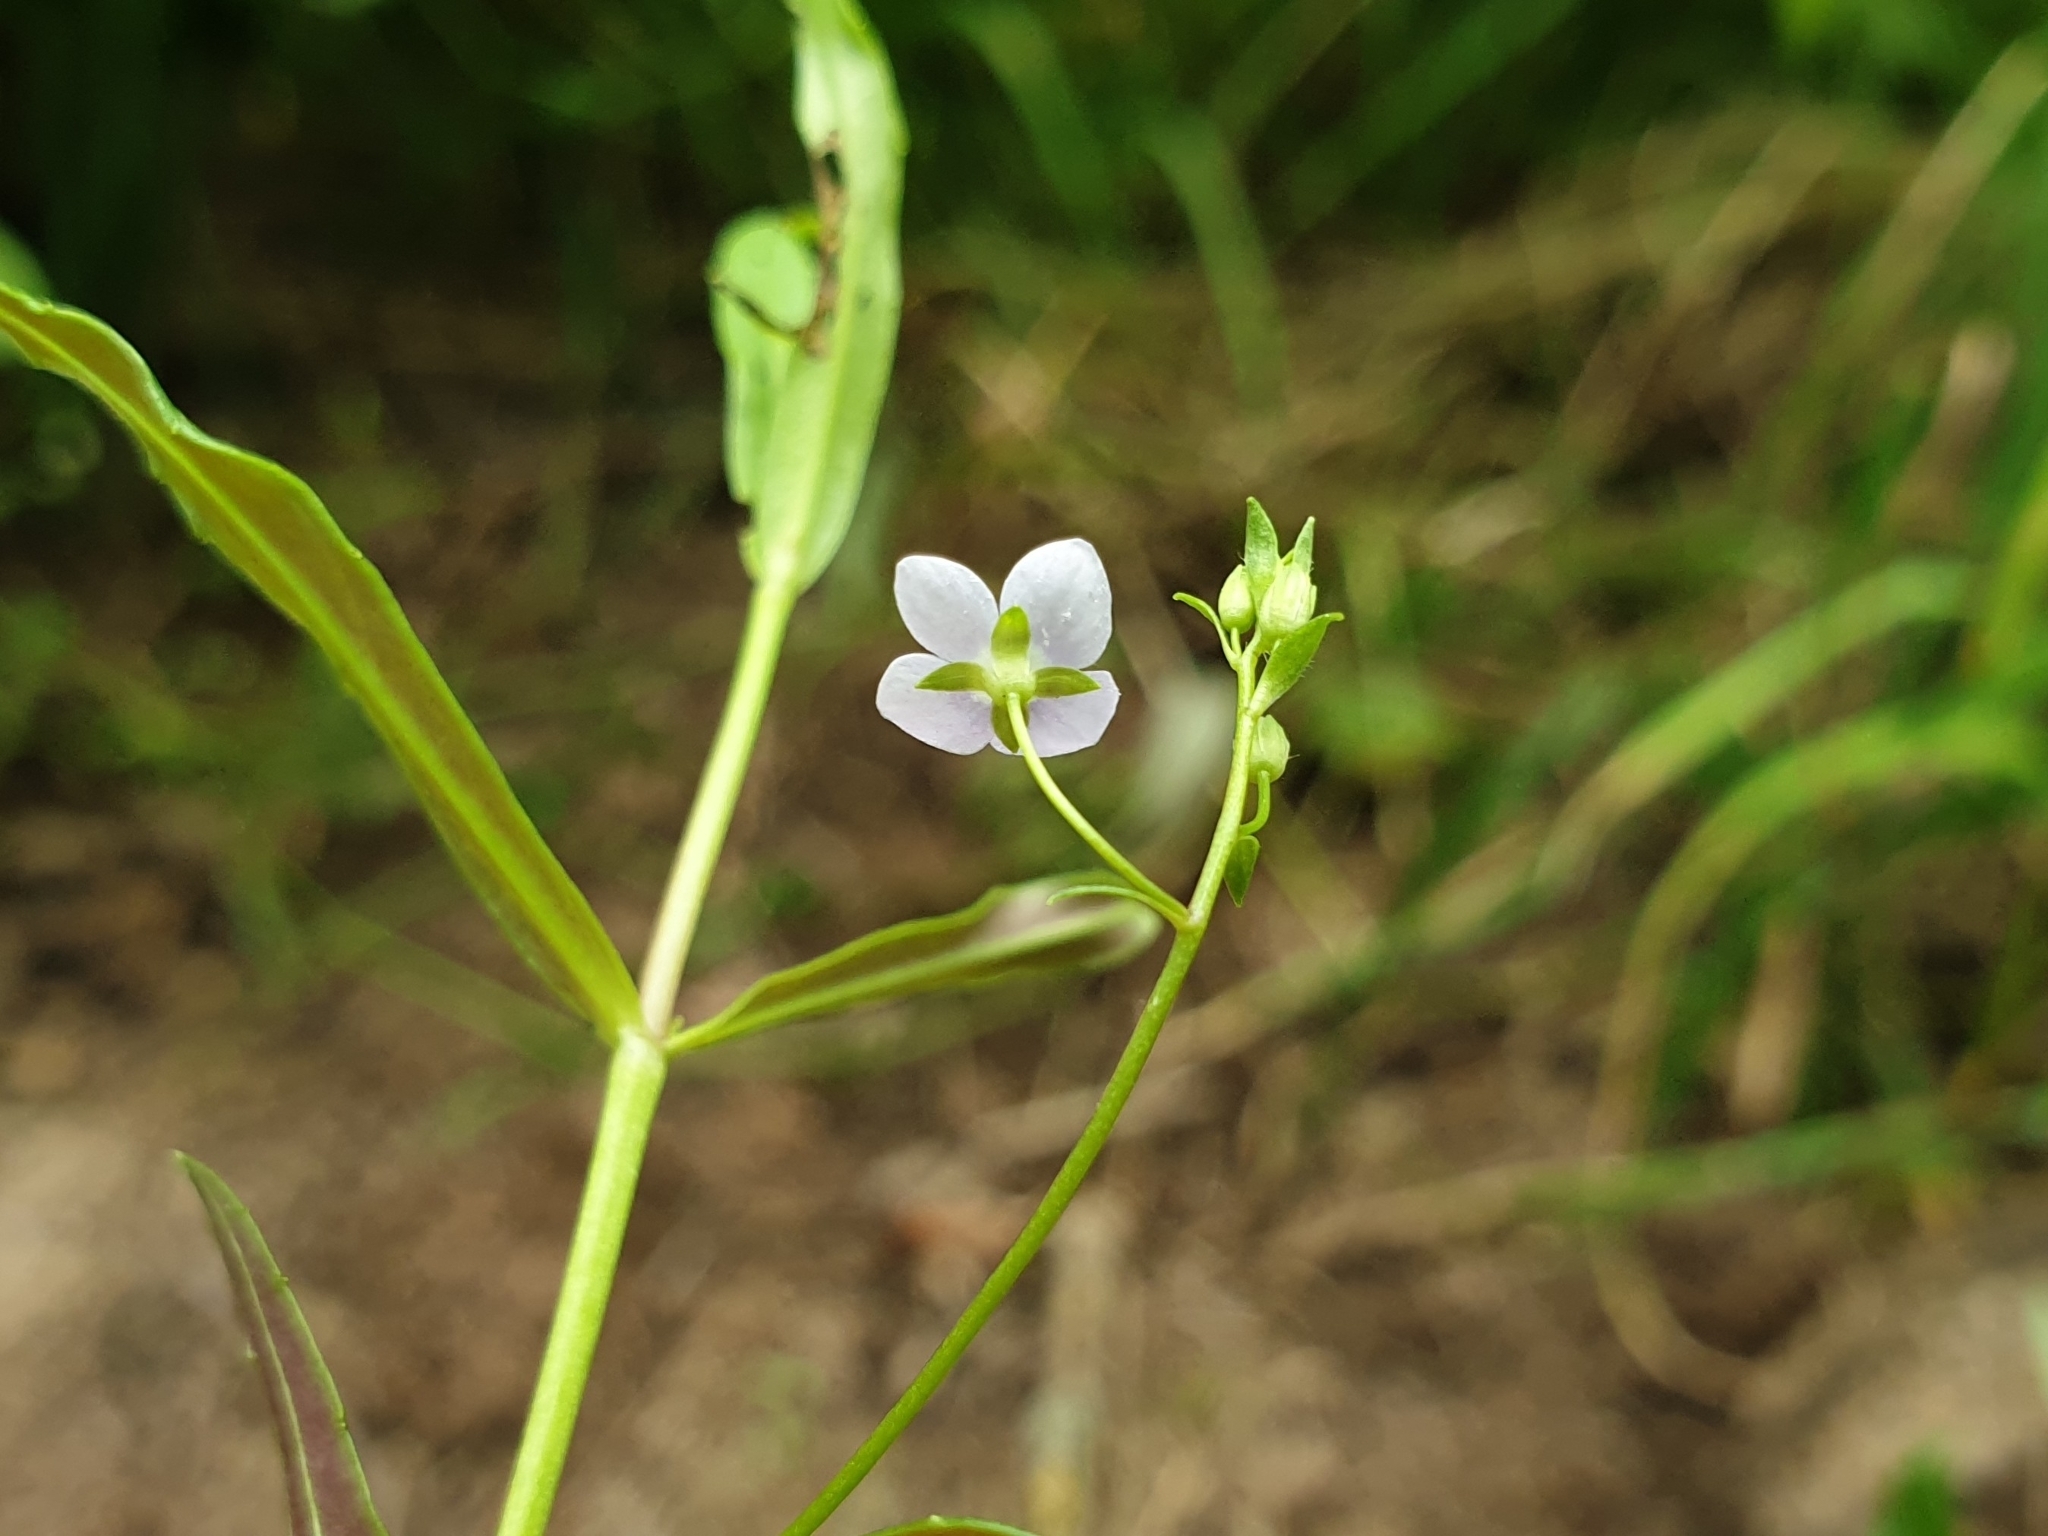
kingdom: Plantae
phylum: Tracheophyta
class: Magnoliopsida
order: Lamiales
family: Plantaginaceae
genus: Veronica
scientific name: Veronica scutellata
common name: Marsh speedwell
